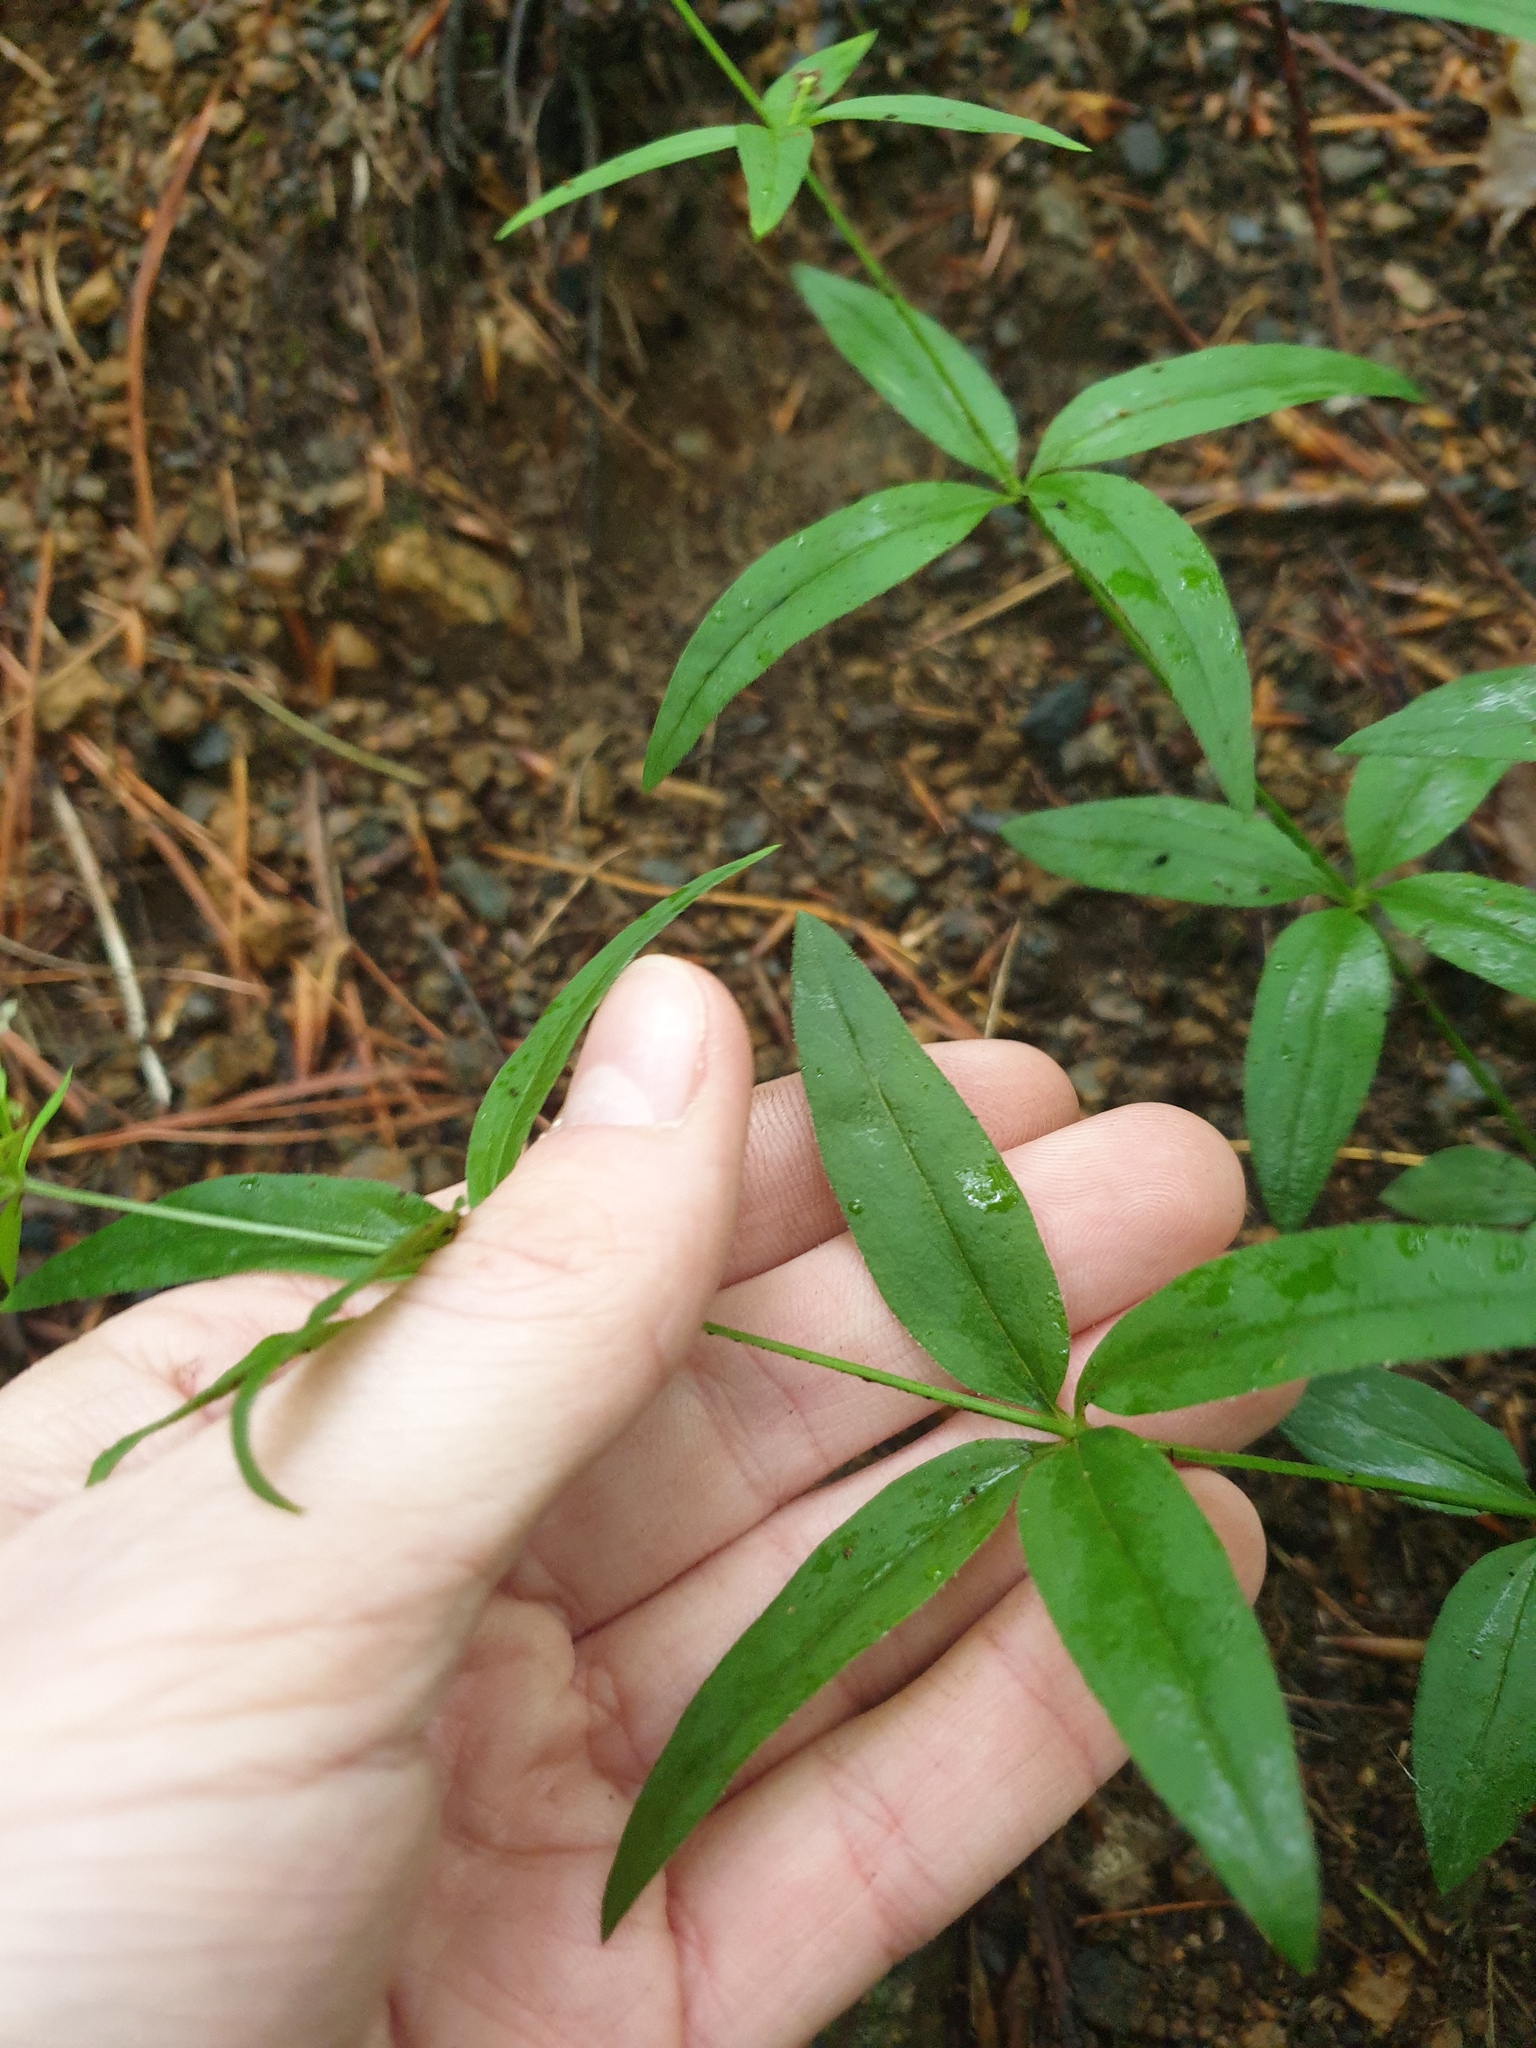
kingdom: Plantae
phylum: Tracheophyta
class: Magnoliopsida
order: Gentianales
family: Rubiaceae
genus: Galium
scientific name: Galium lanceolatum
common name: Lance-leaved wild licorice
